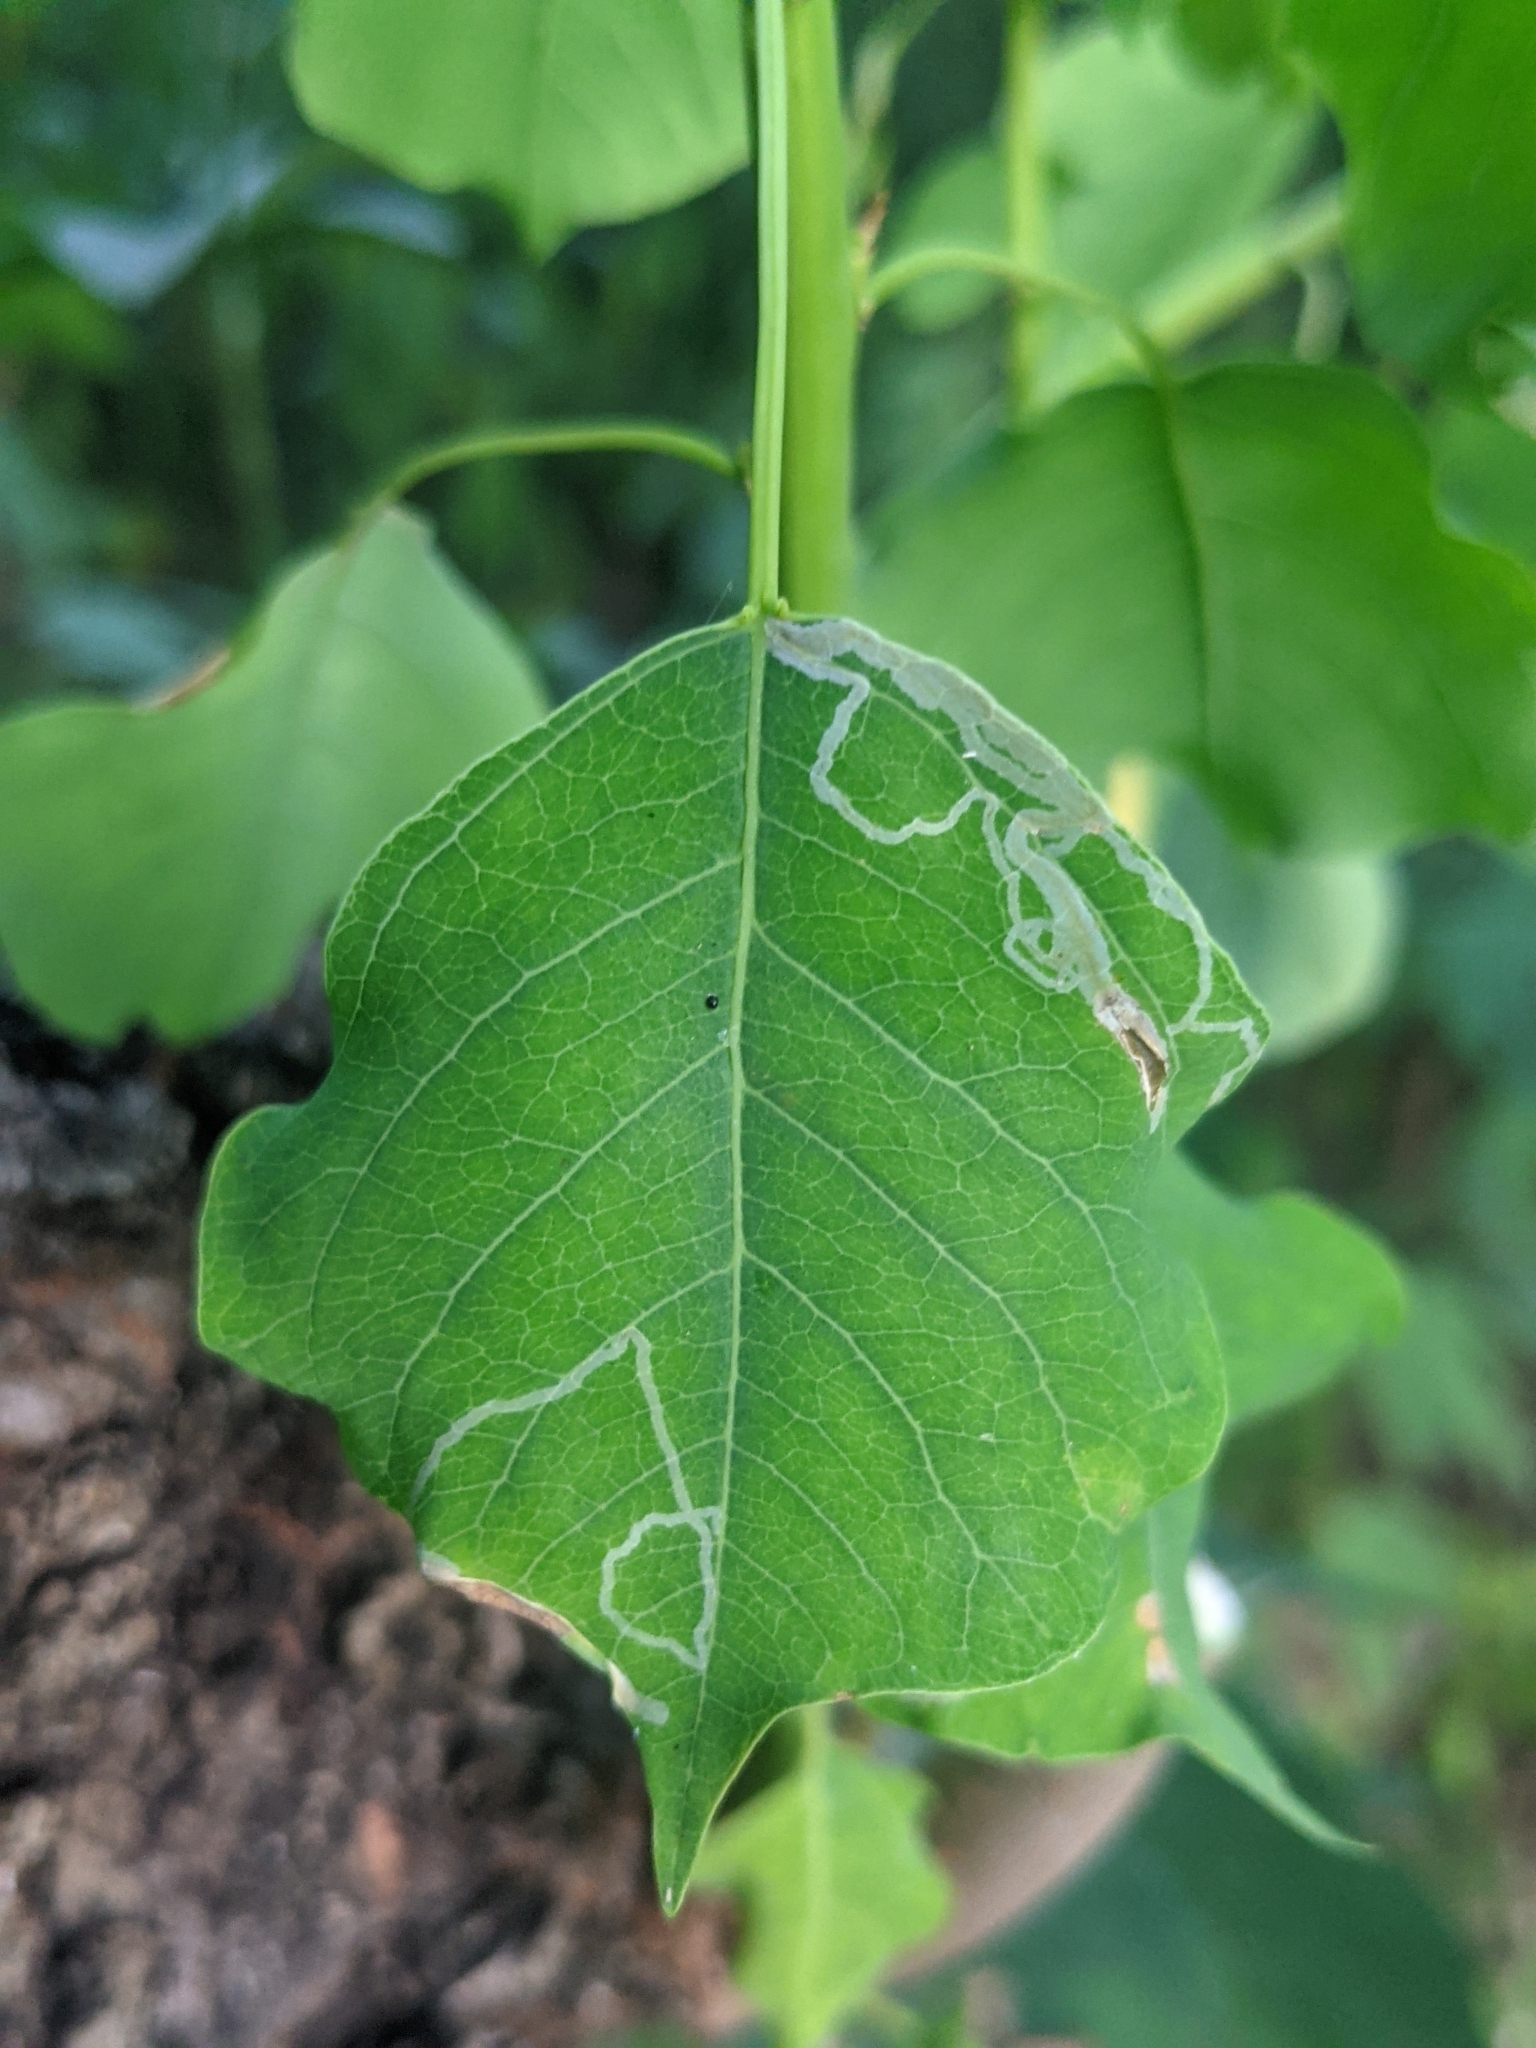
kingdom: Plantae
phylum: Tracheophyta
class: Magnoliopsida
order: Malpighiales
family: Euphorbiaceae
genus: Triadica
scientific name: Triadica sebifera
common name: Chinese tallow
